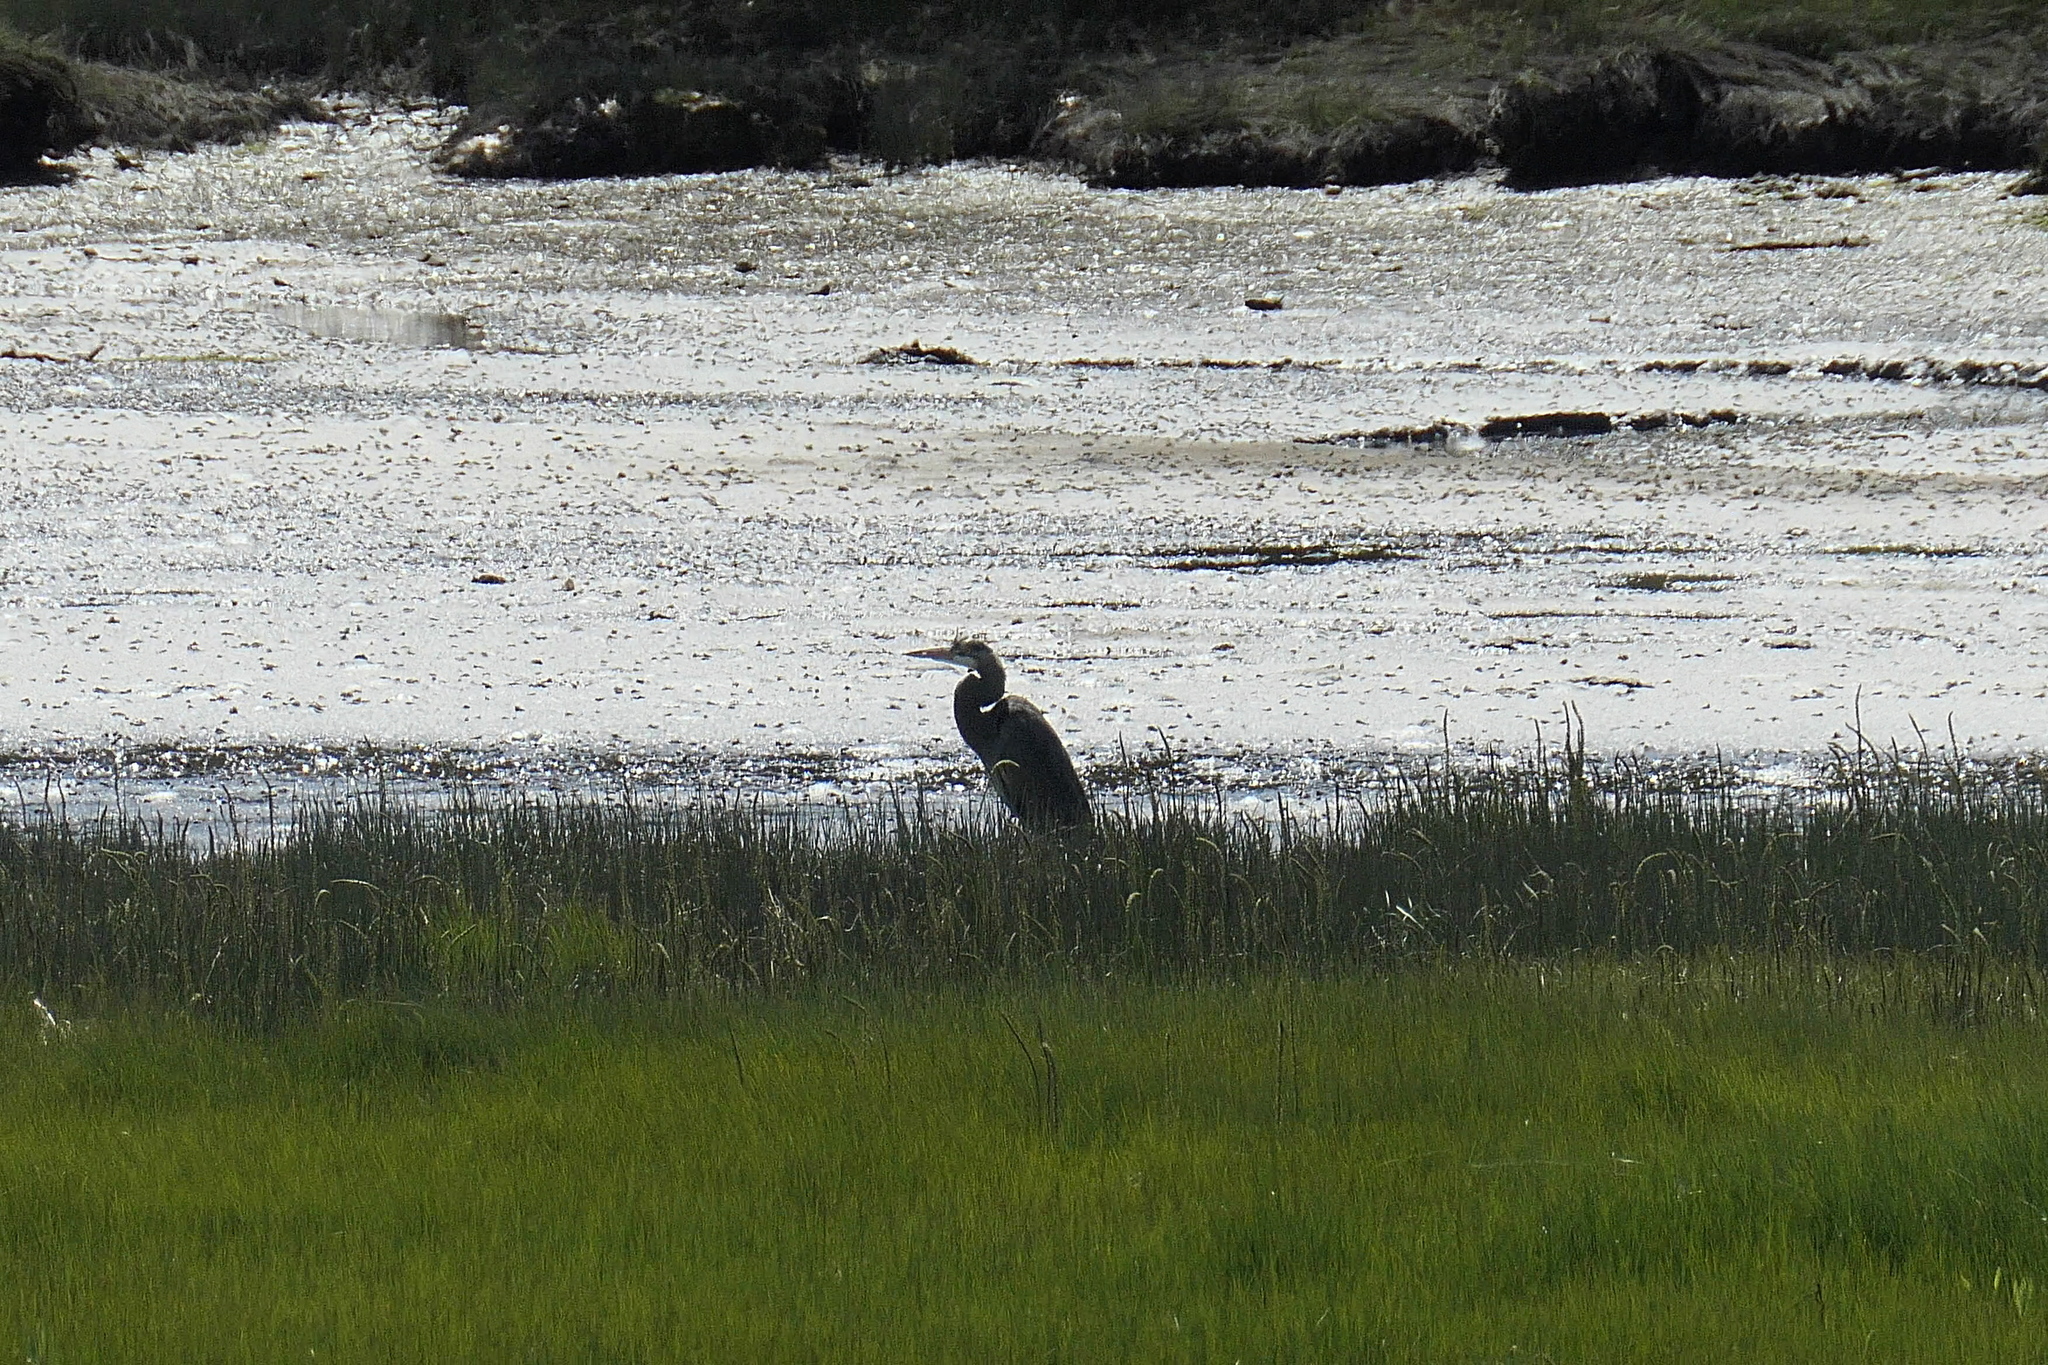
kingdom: Animalia
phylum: Chordata
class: Aves
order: Pelecaniformes
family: Ardeidae
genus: Ardea
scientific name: Ardea herodias
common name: Great blue heron
